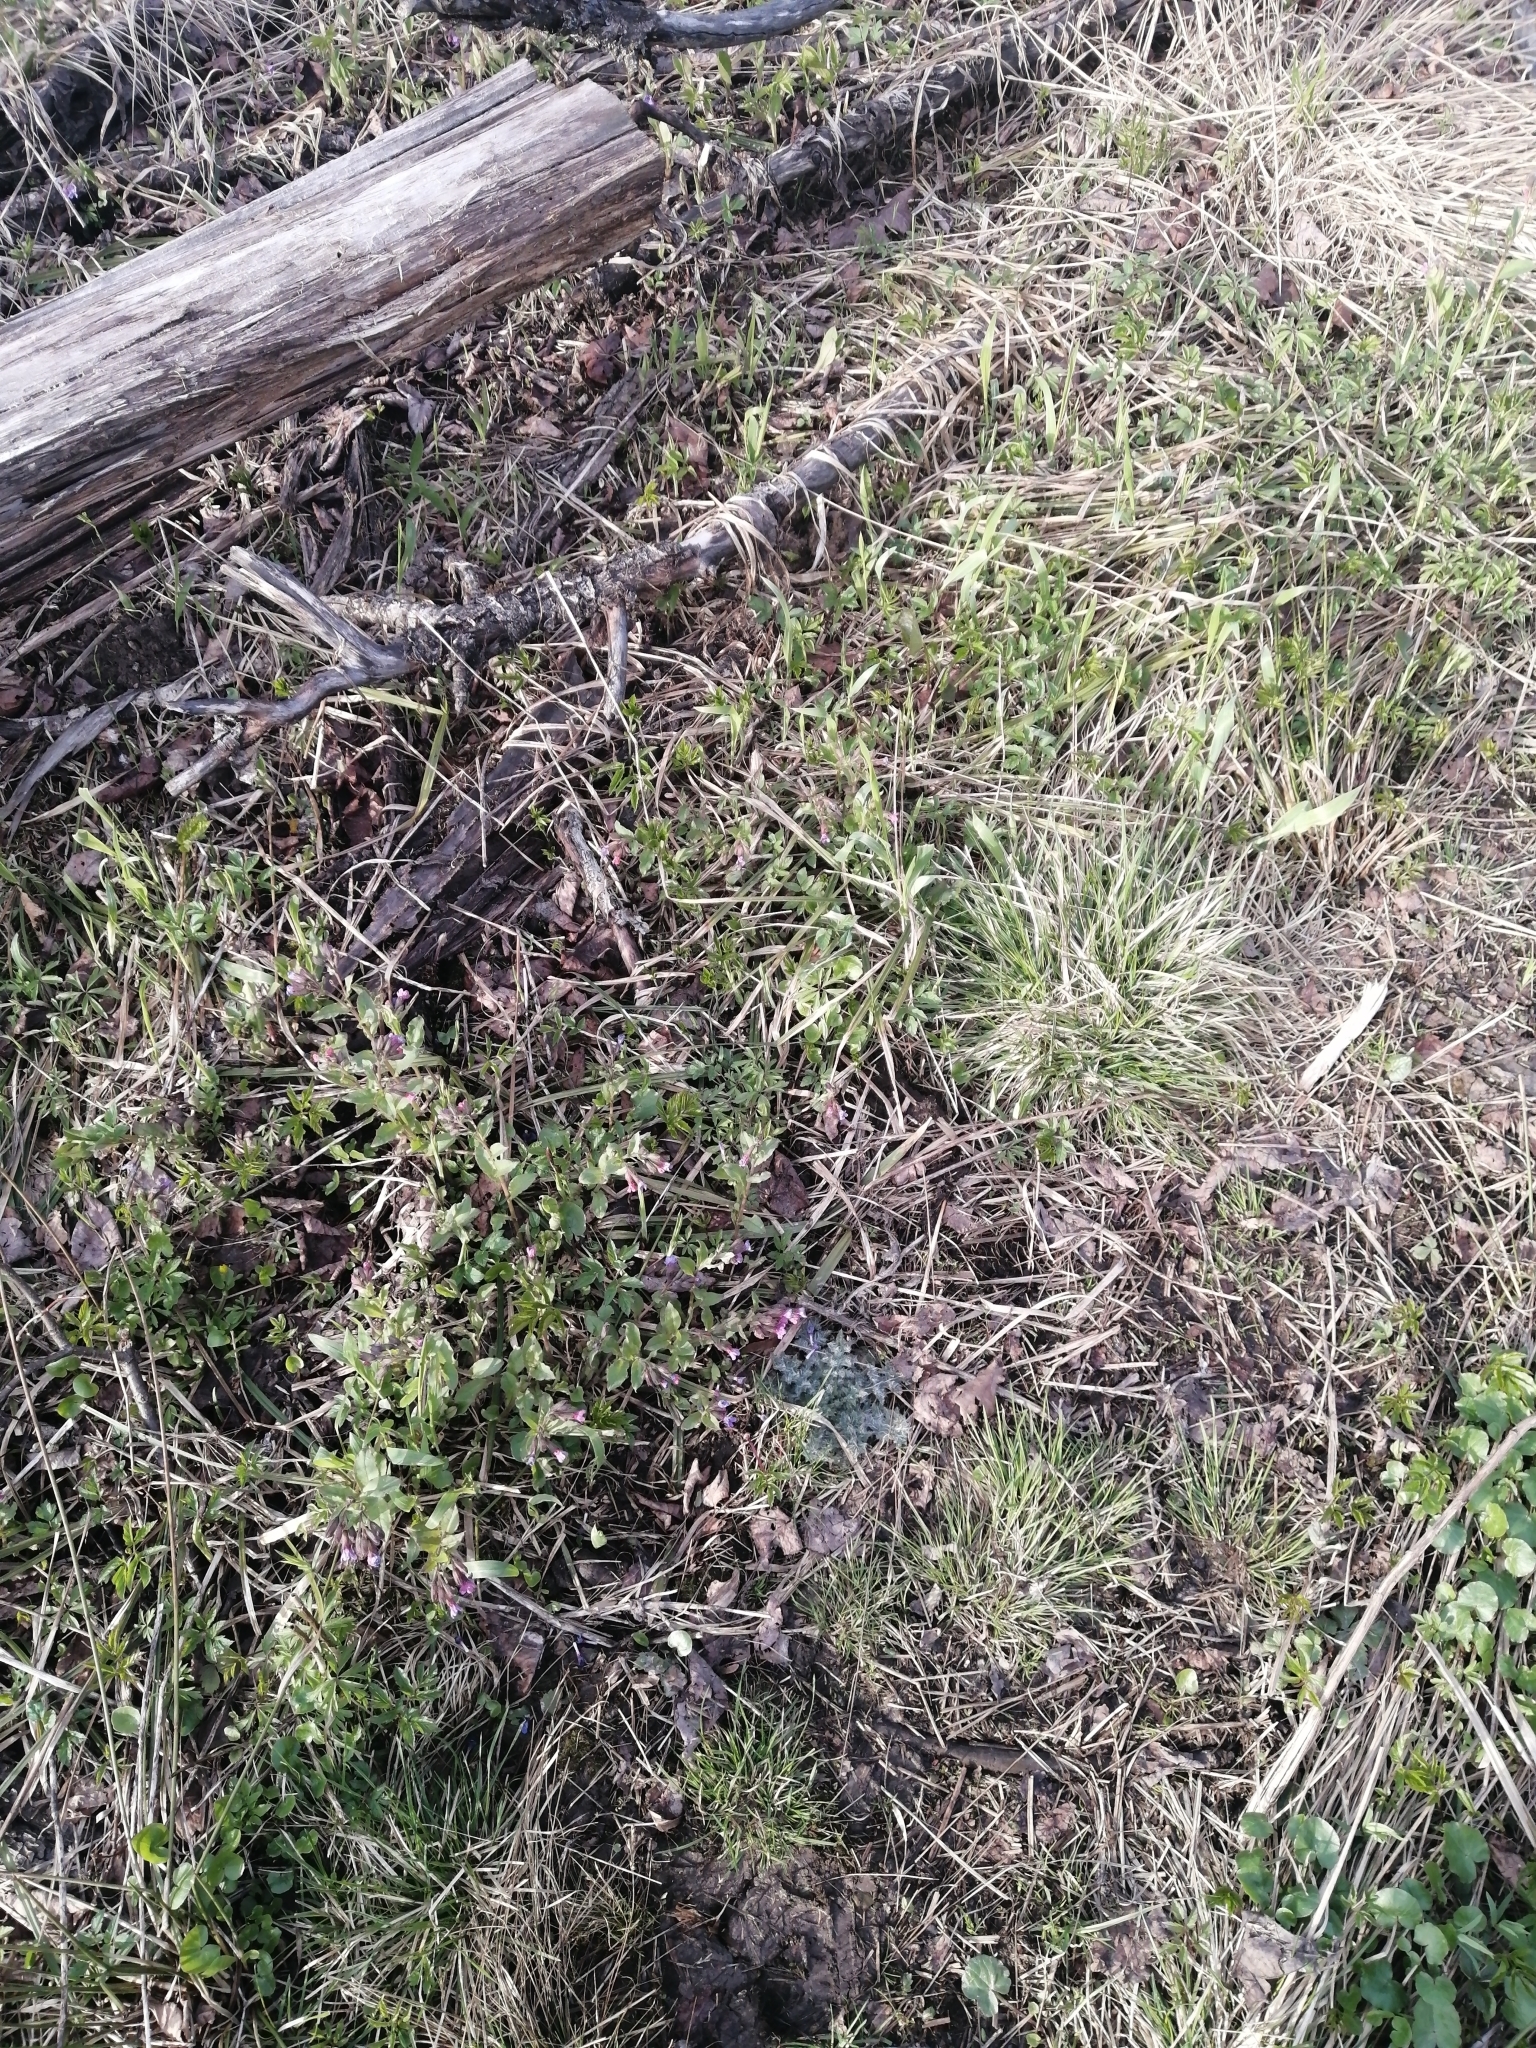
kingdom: Plantae
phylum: Tracheophyta
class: Magnoliopsida
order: Asterales
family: Asteraceae
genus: Cirsium
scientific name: Cirsium vulgare
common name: Bull thistle
